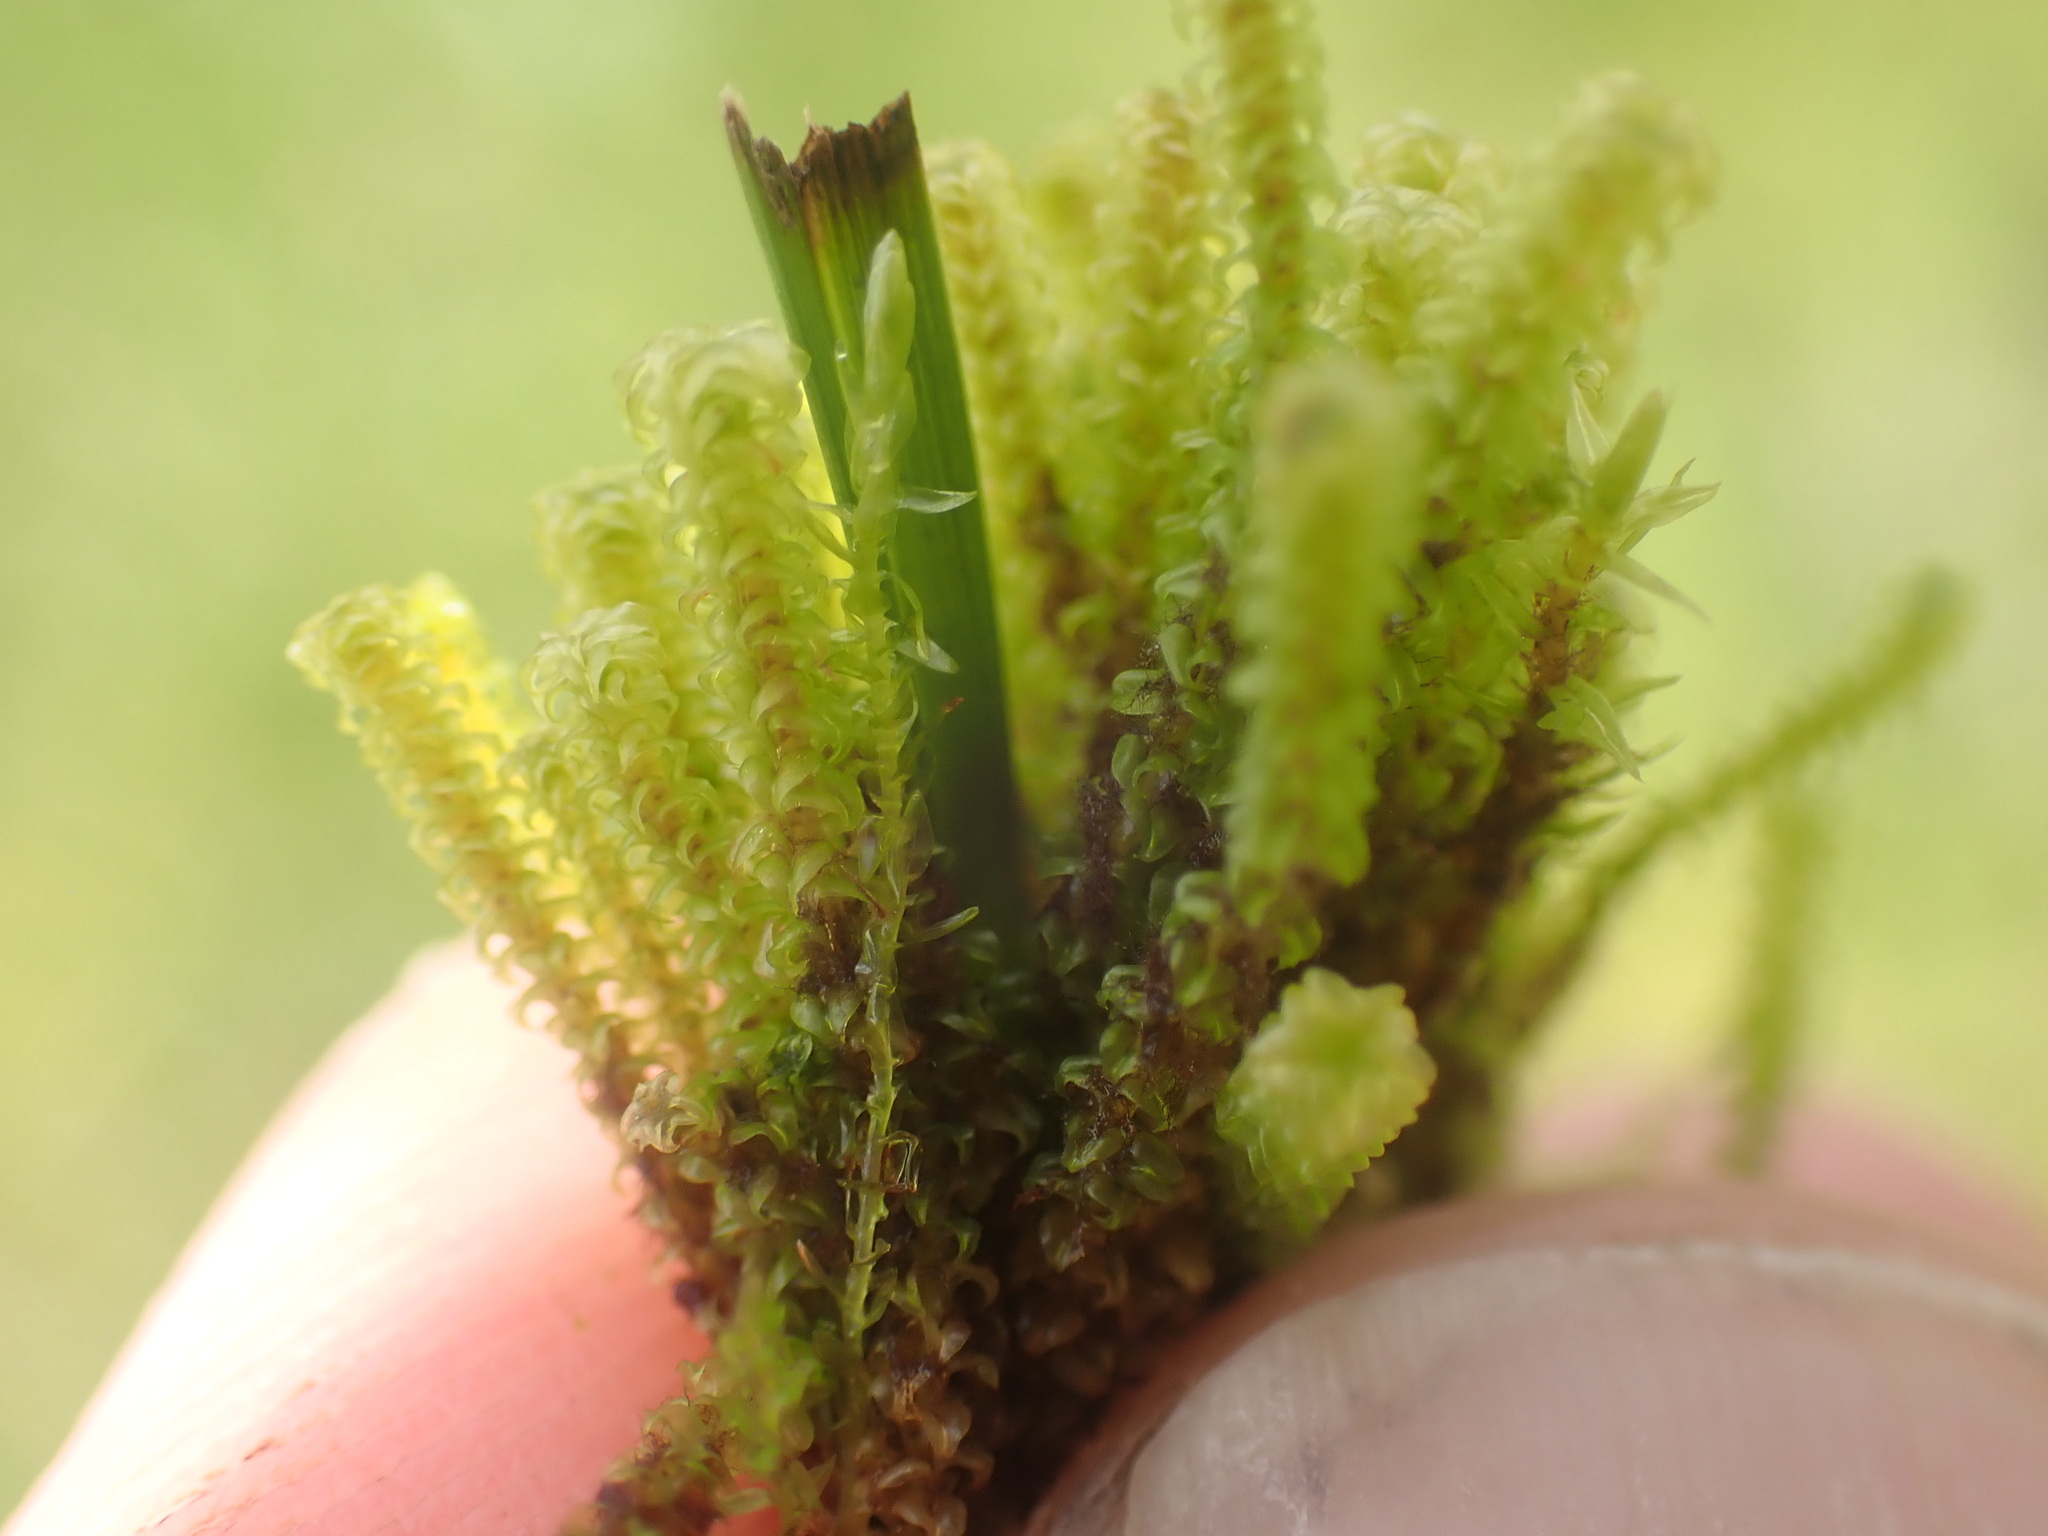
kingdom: Plantae
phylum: Bryophyta
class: Bryopsida
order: Splachnales
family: Meesiaceae
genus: Paludella
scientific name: Paludella squarrosa
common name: Tufted fen moss
